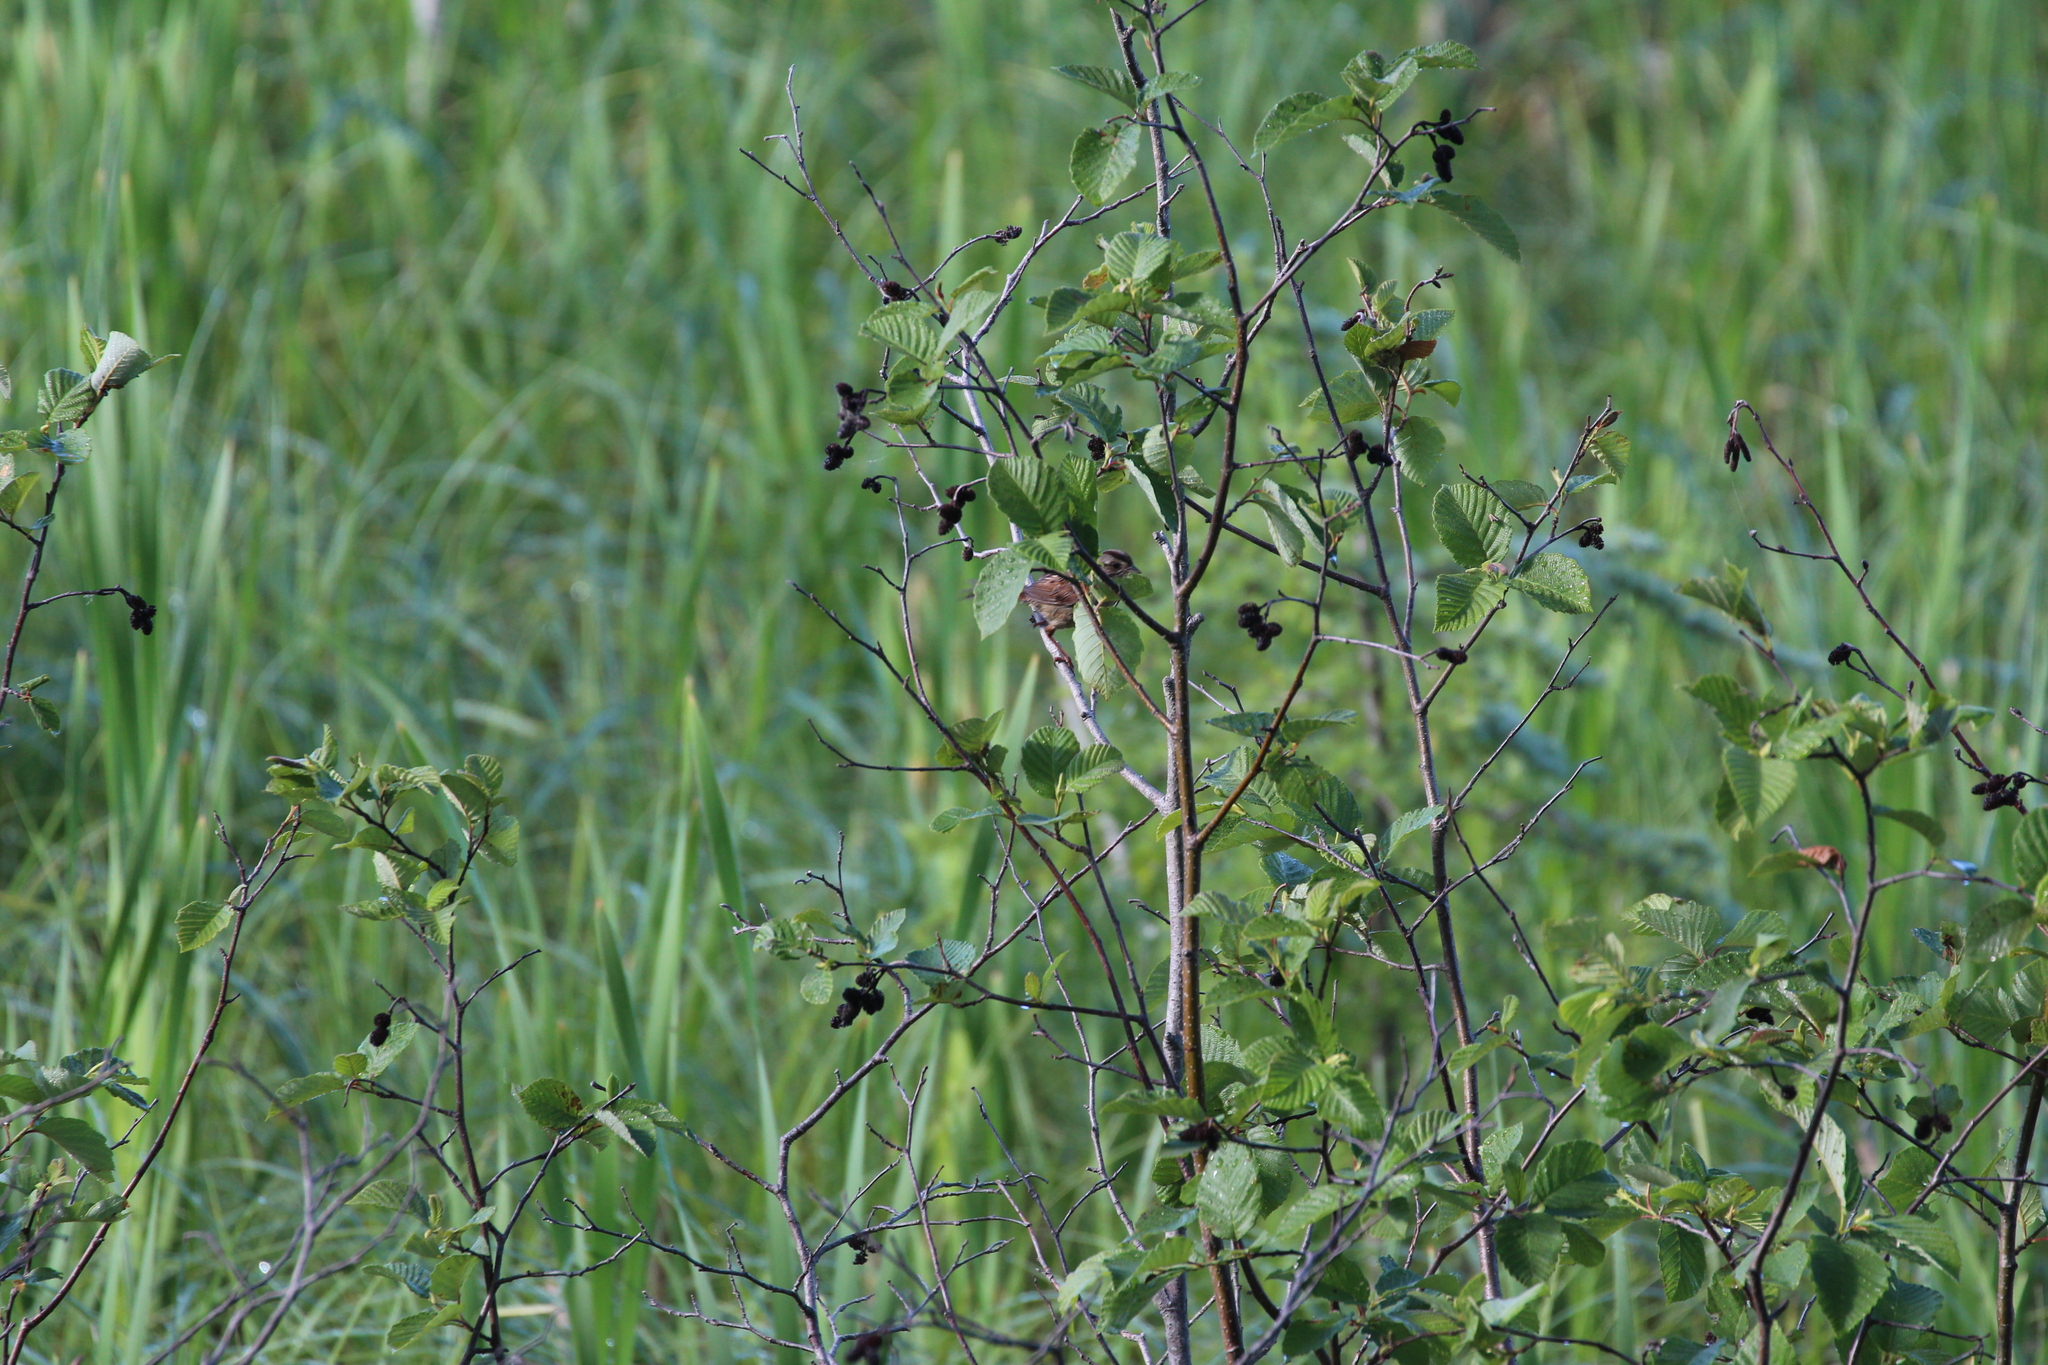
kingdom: Animalia
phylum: Chordata
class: Aves
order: Passeriformes
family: Passerellidae
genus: Melospiza
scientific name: Melospiza georgiana
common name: Swamp sparrow
